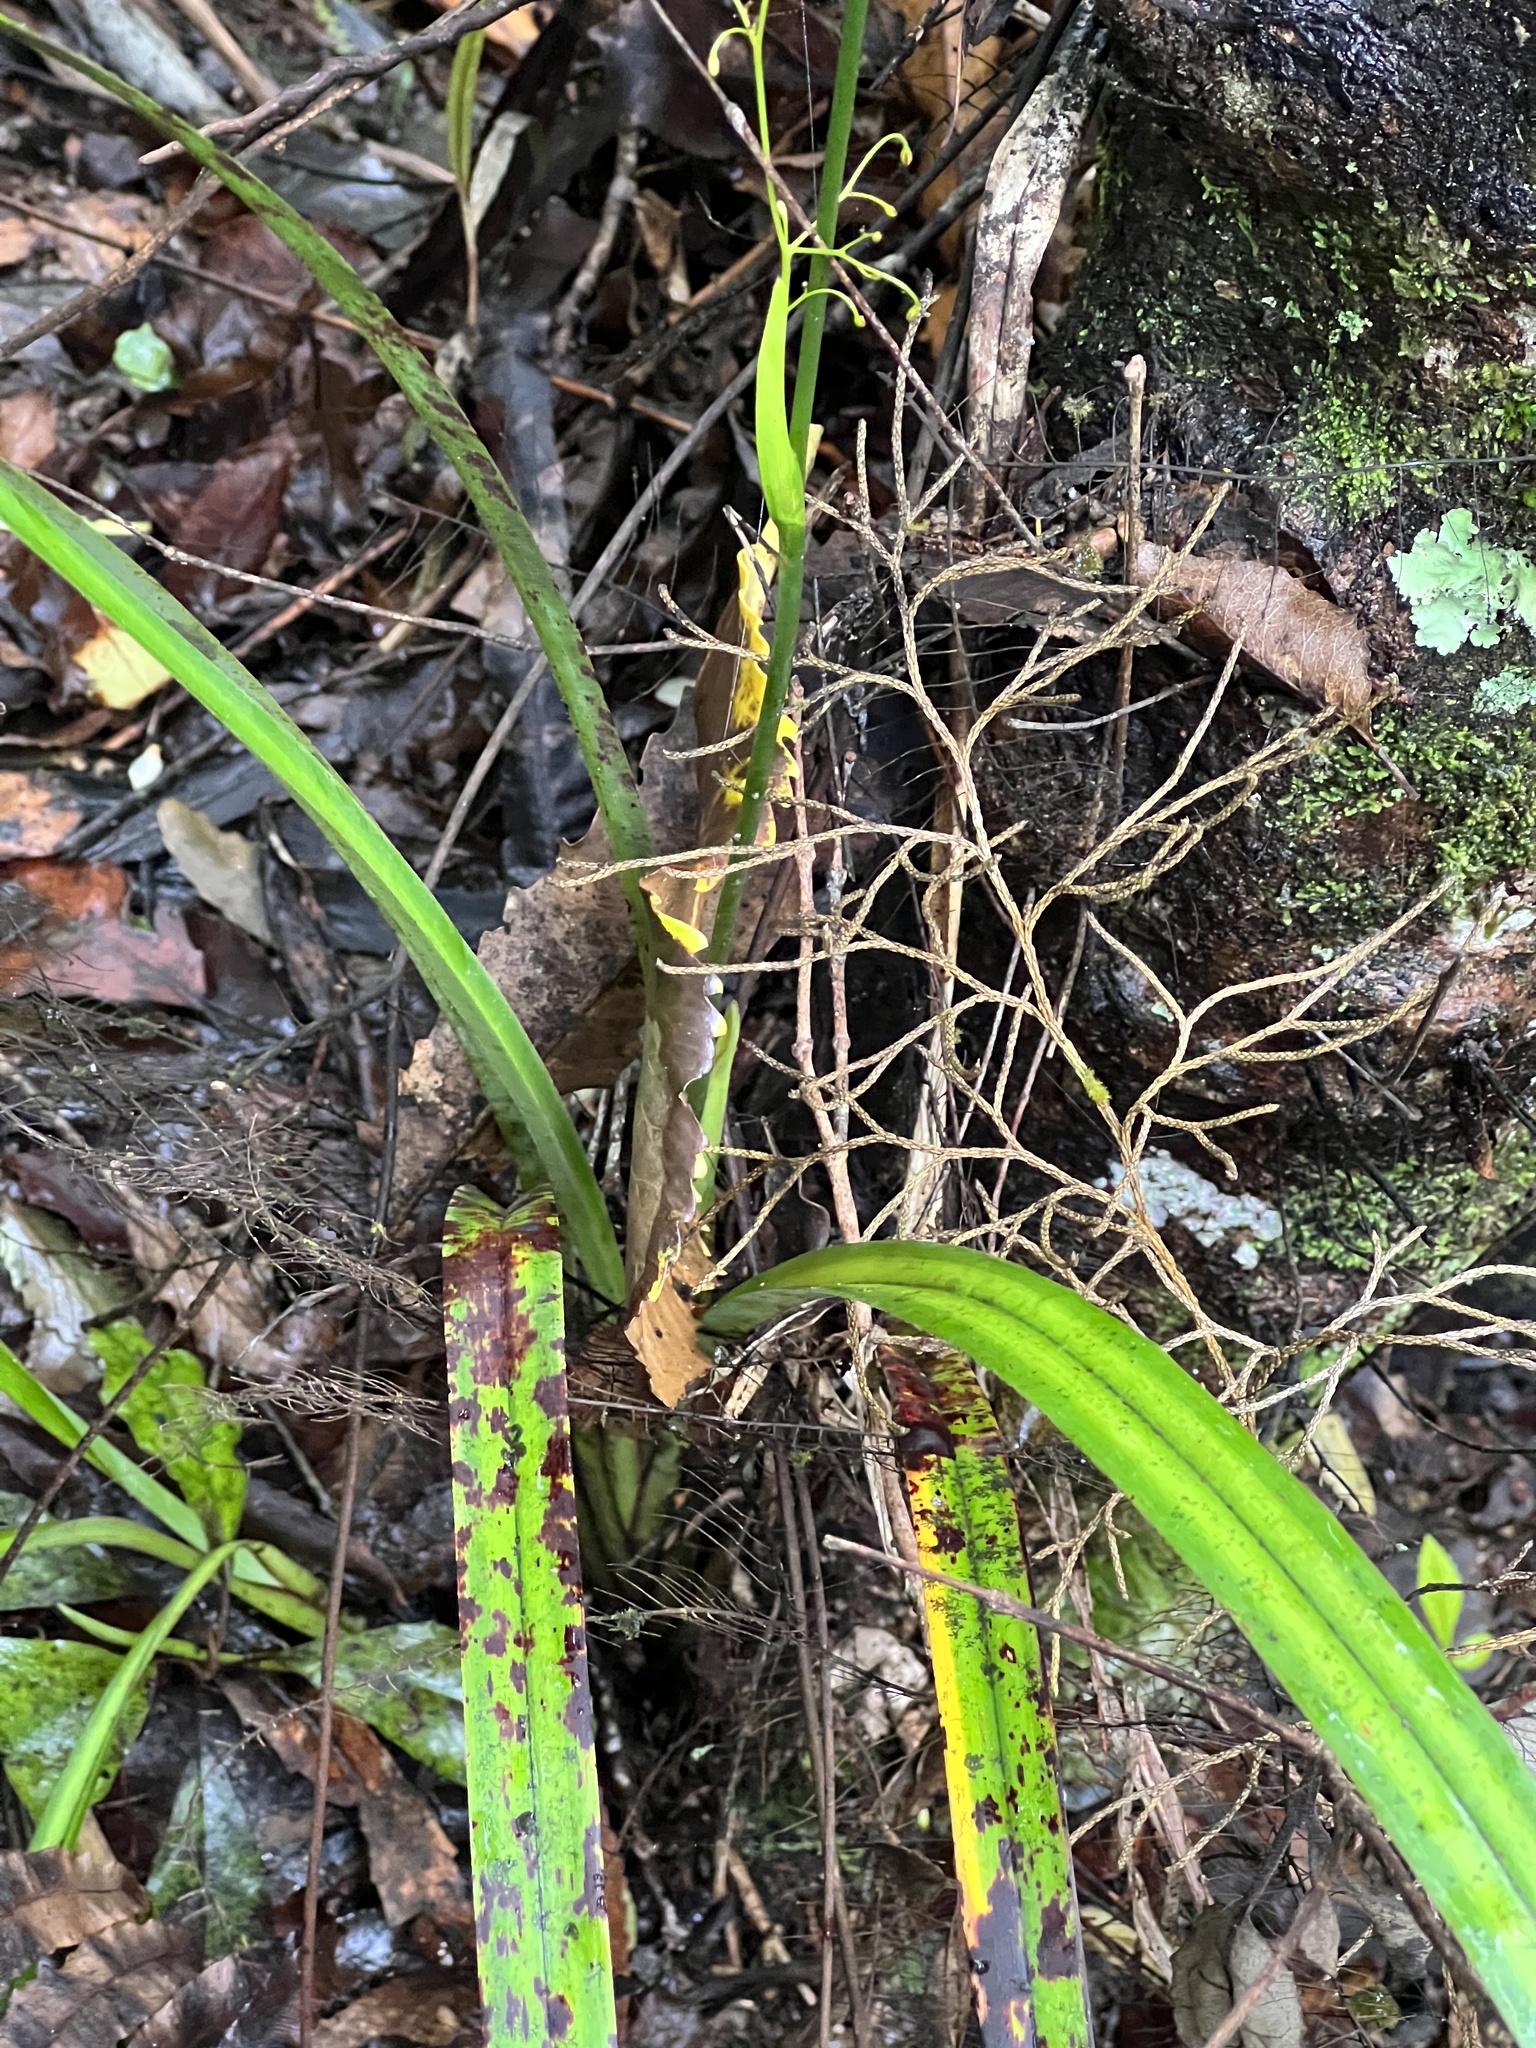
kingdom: Plantae
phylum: Tracheophyta
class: Liliopsida
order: Asparagales
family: Asphodelaceae
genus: Dianella
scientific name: Dianella nigra
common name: New zealand-blueberry
